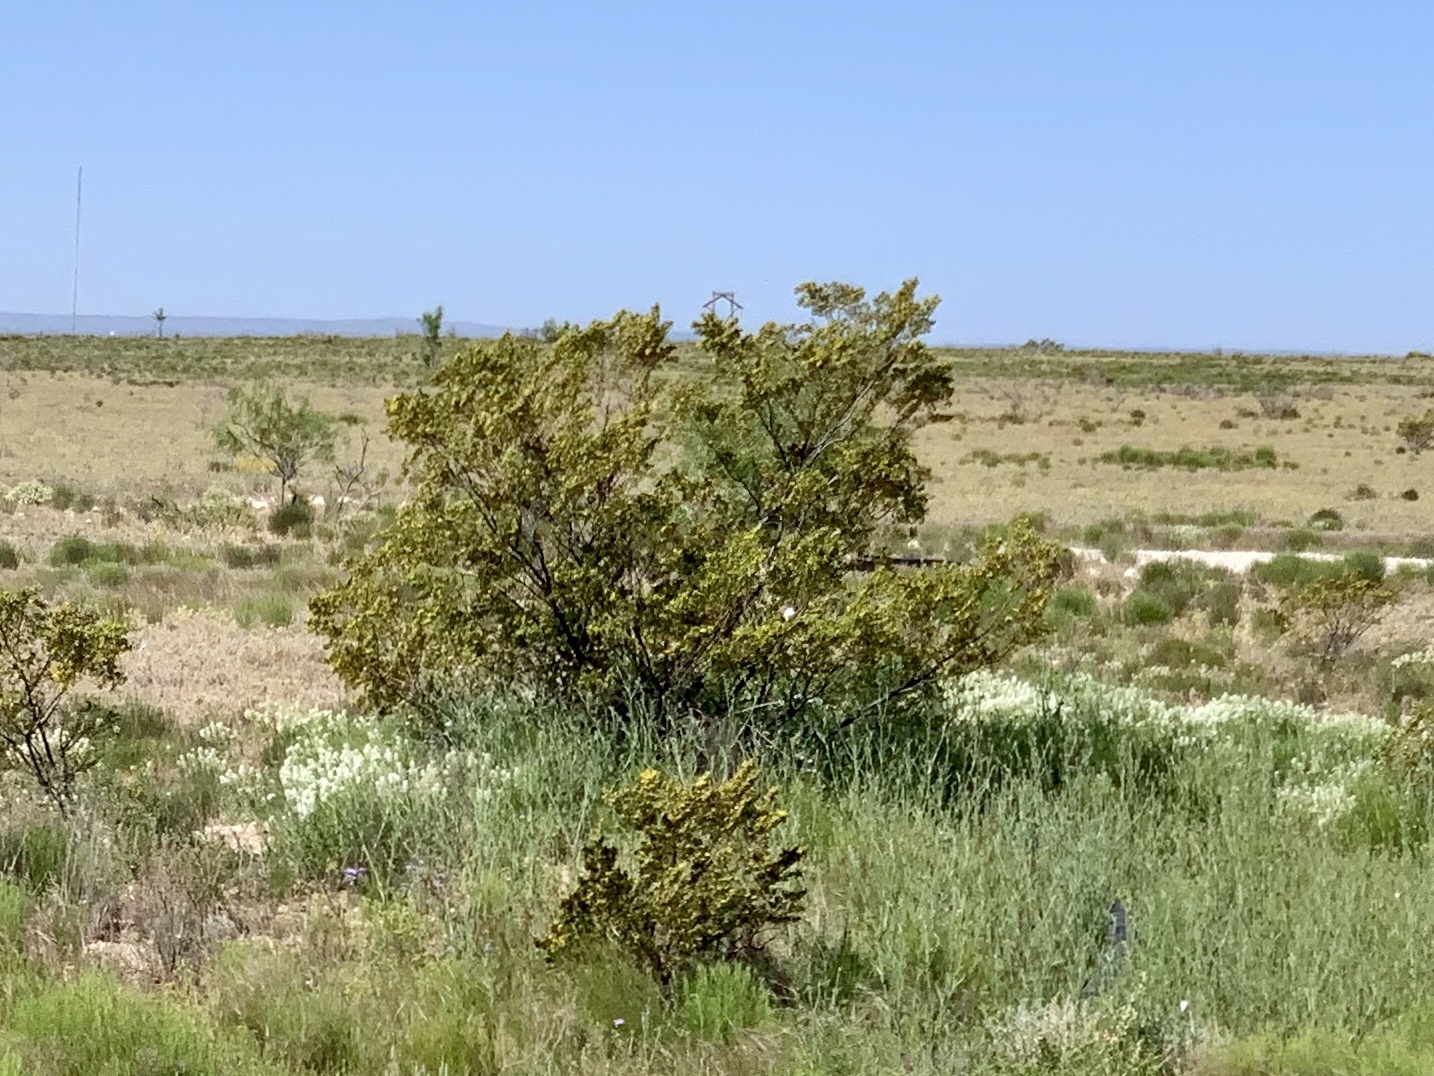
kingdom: Plantae
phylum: Tracheophyta
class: Magnoliopsida
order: Zygophyllales
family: Zygophyllaceae
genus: Larrea
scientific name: Larrea tridentata
